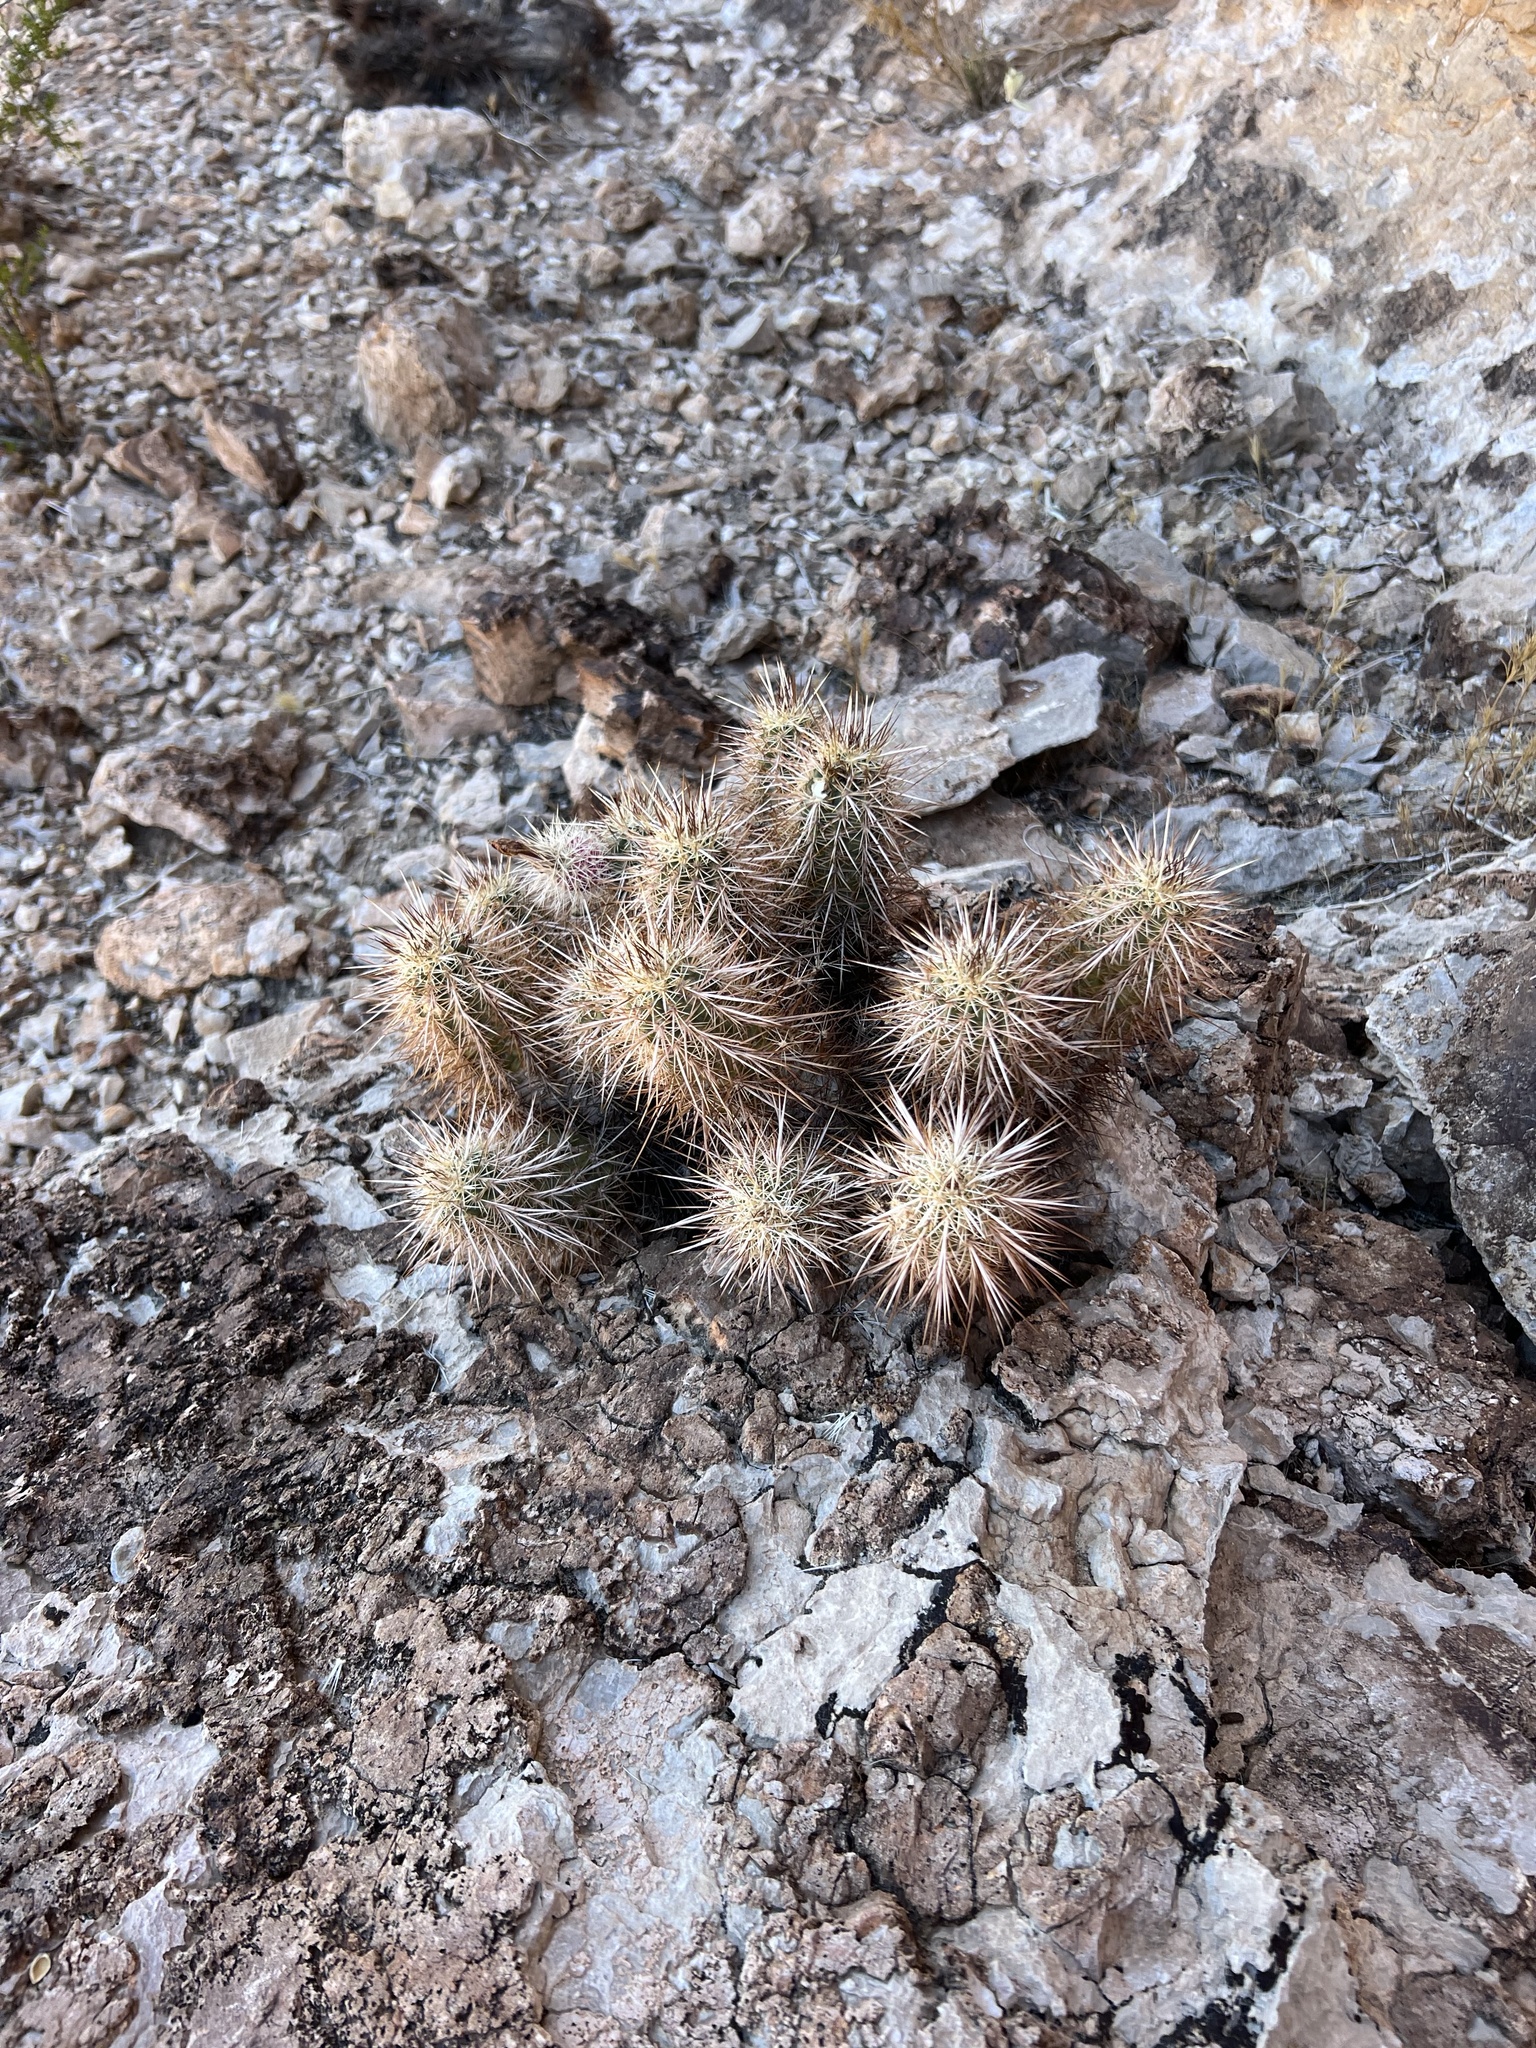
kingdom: Plantae
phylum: Tracheophyta
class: Magnoliopsida
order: Caryophyllales
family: Cactaceae
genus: Echinocereus
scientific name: Echinocereus engelmannii
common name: Engelmann's hedgehog cactus
